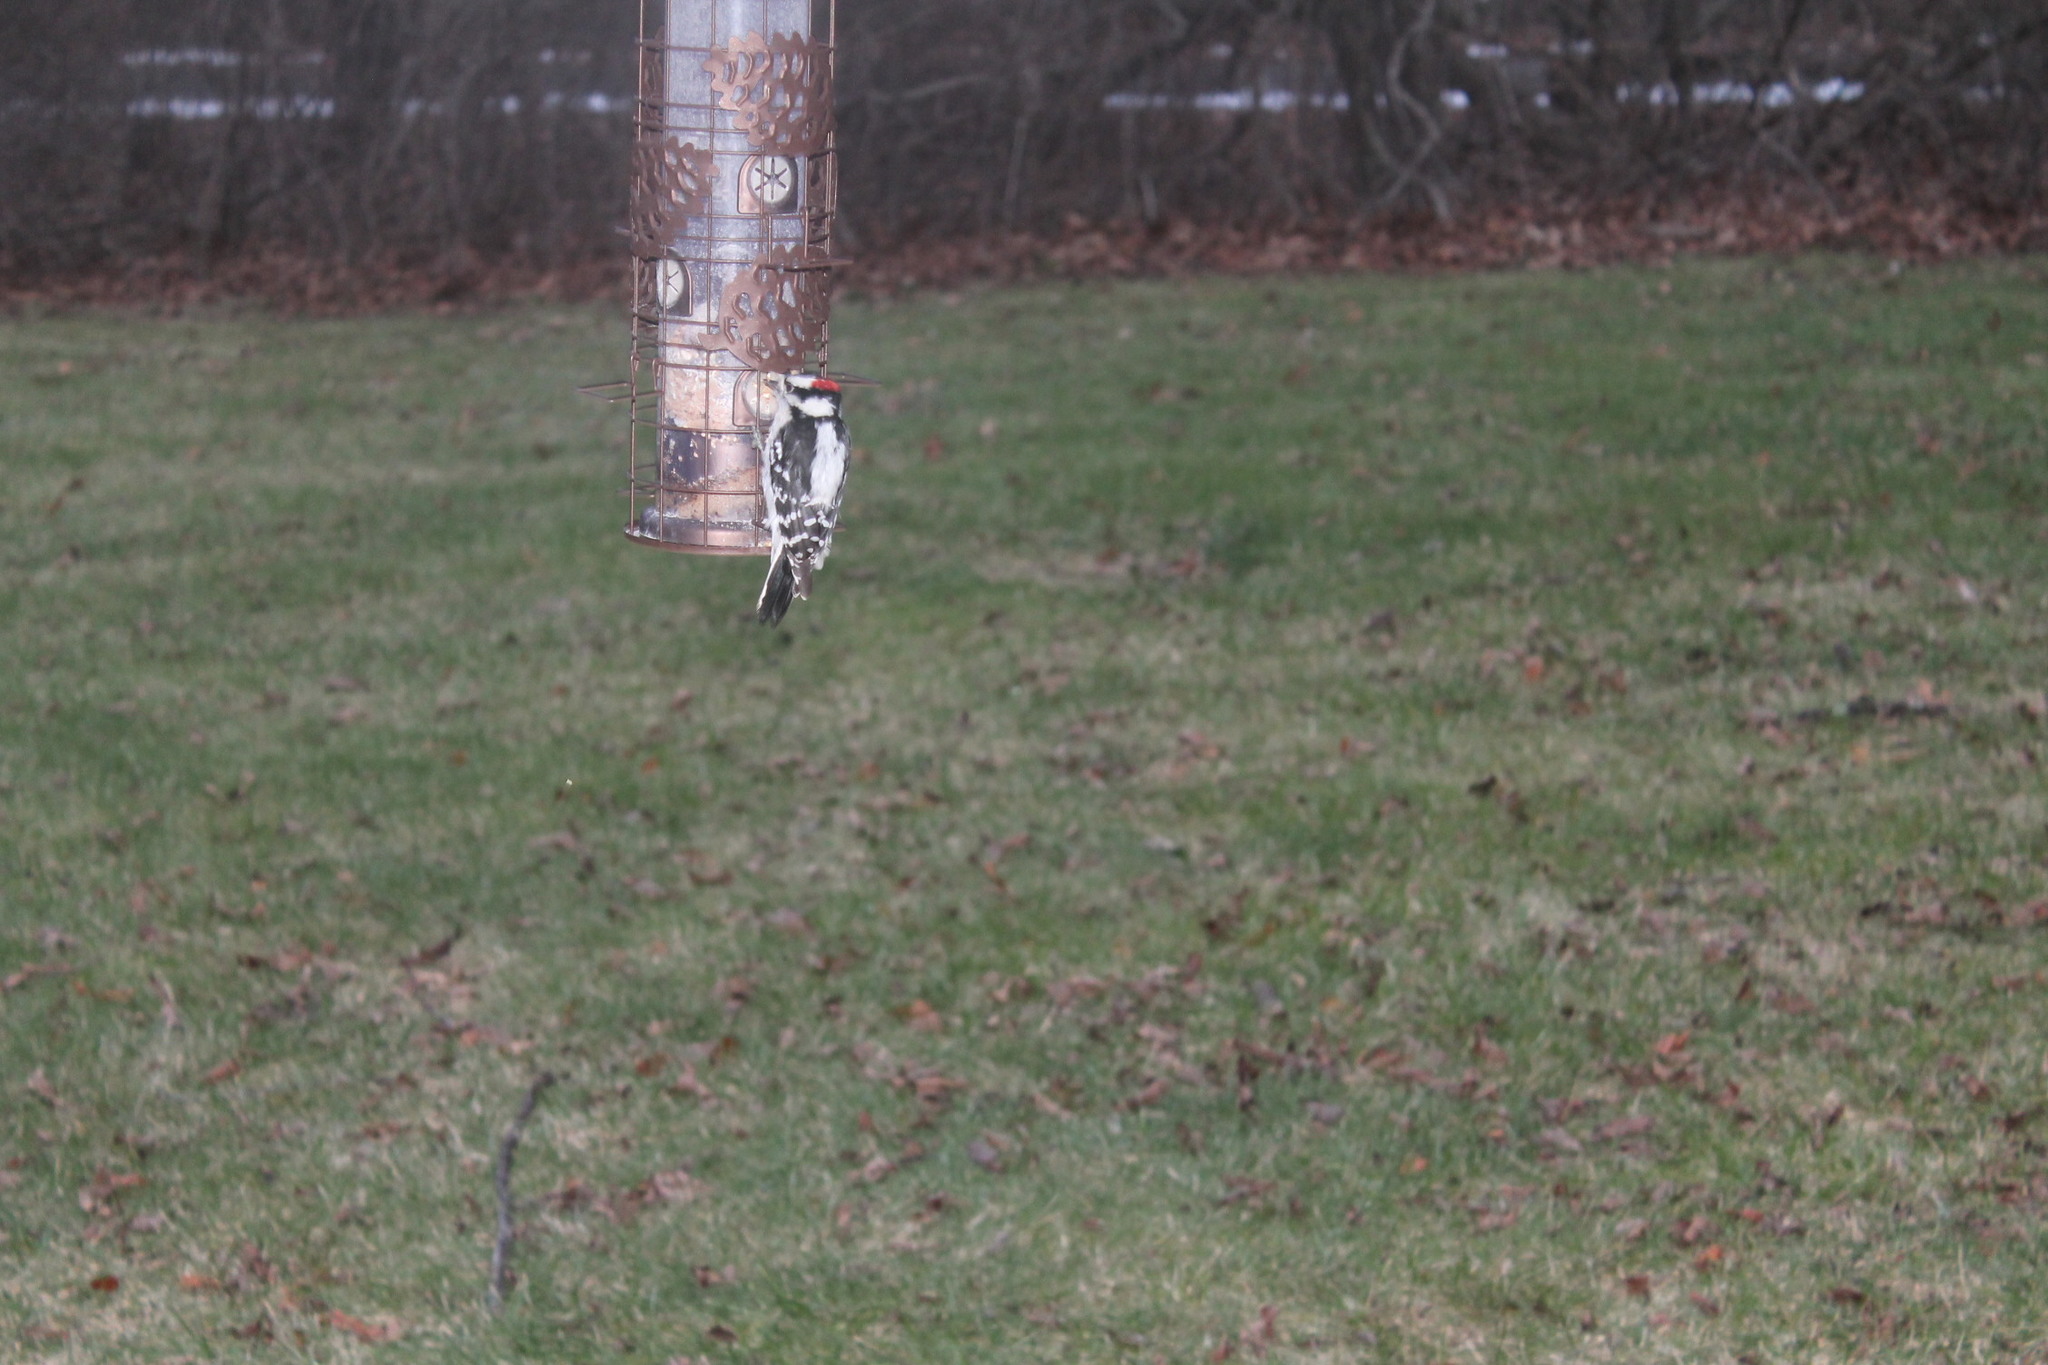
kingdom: Animalia
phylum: Chordata
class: Aves
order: Piciformes
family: Picidae
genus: Dryobates
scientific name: Dryobates pubescens
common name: Downy woodpecker
